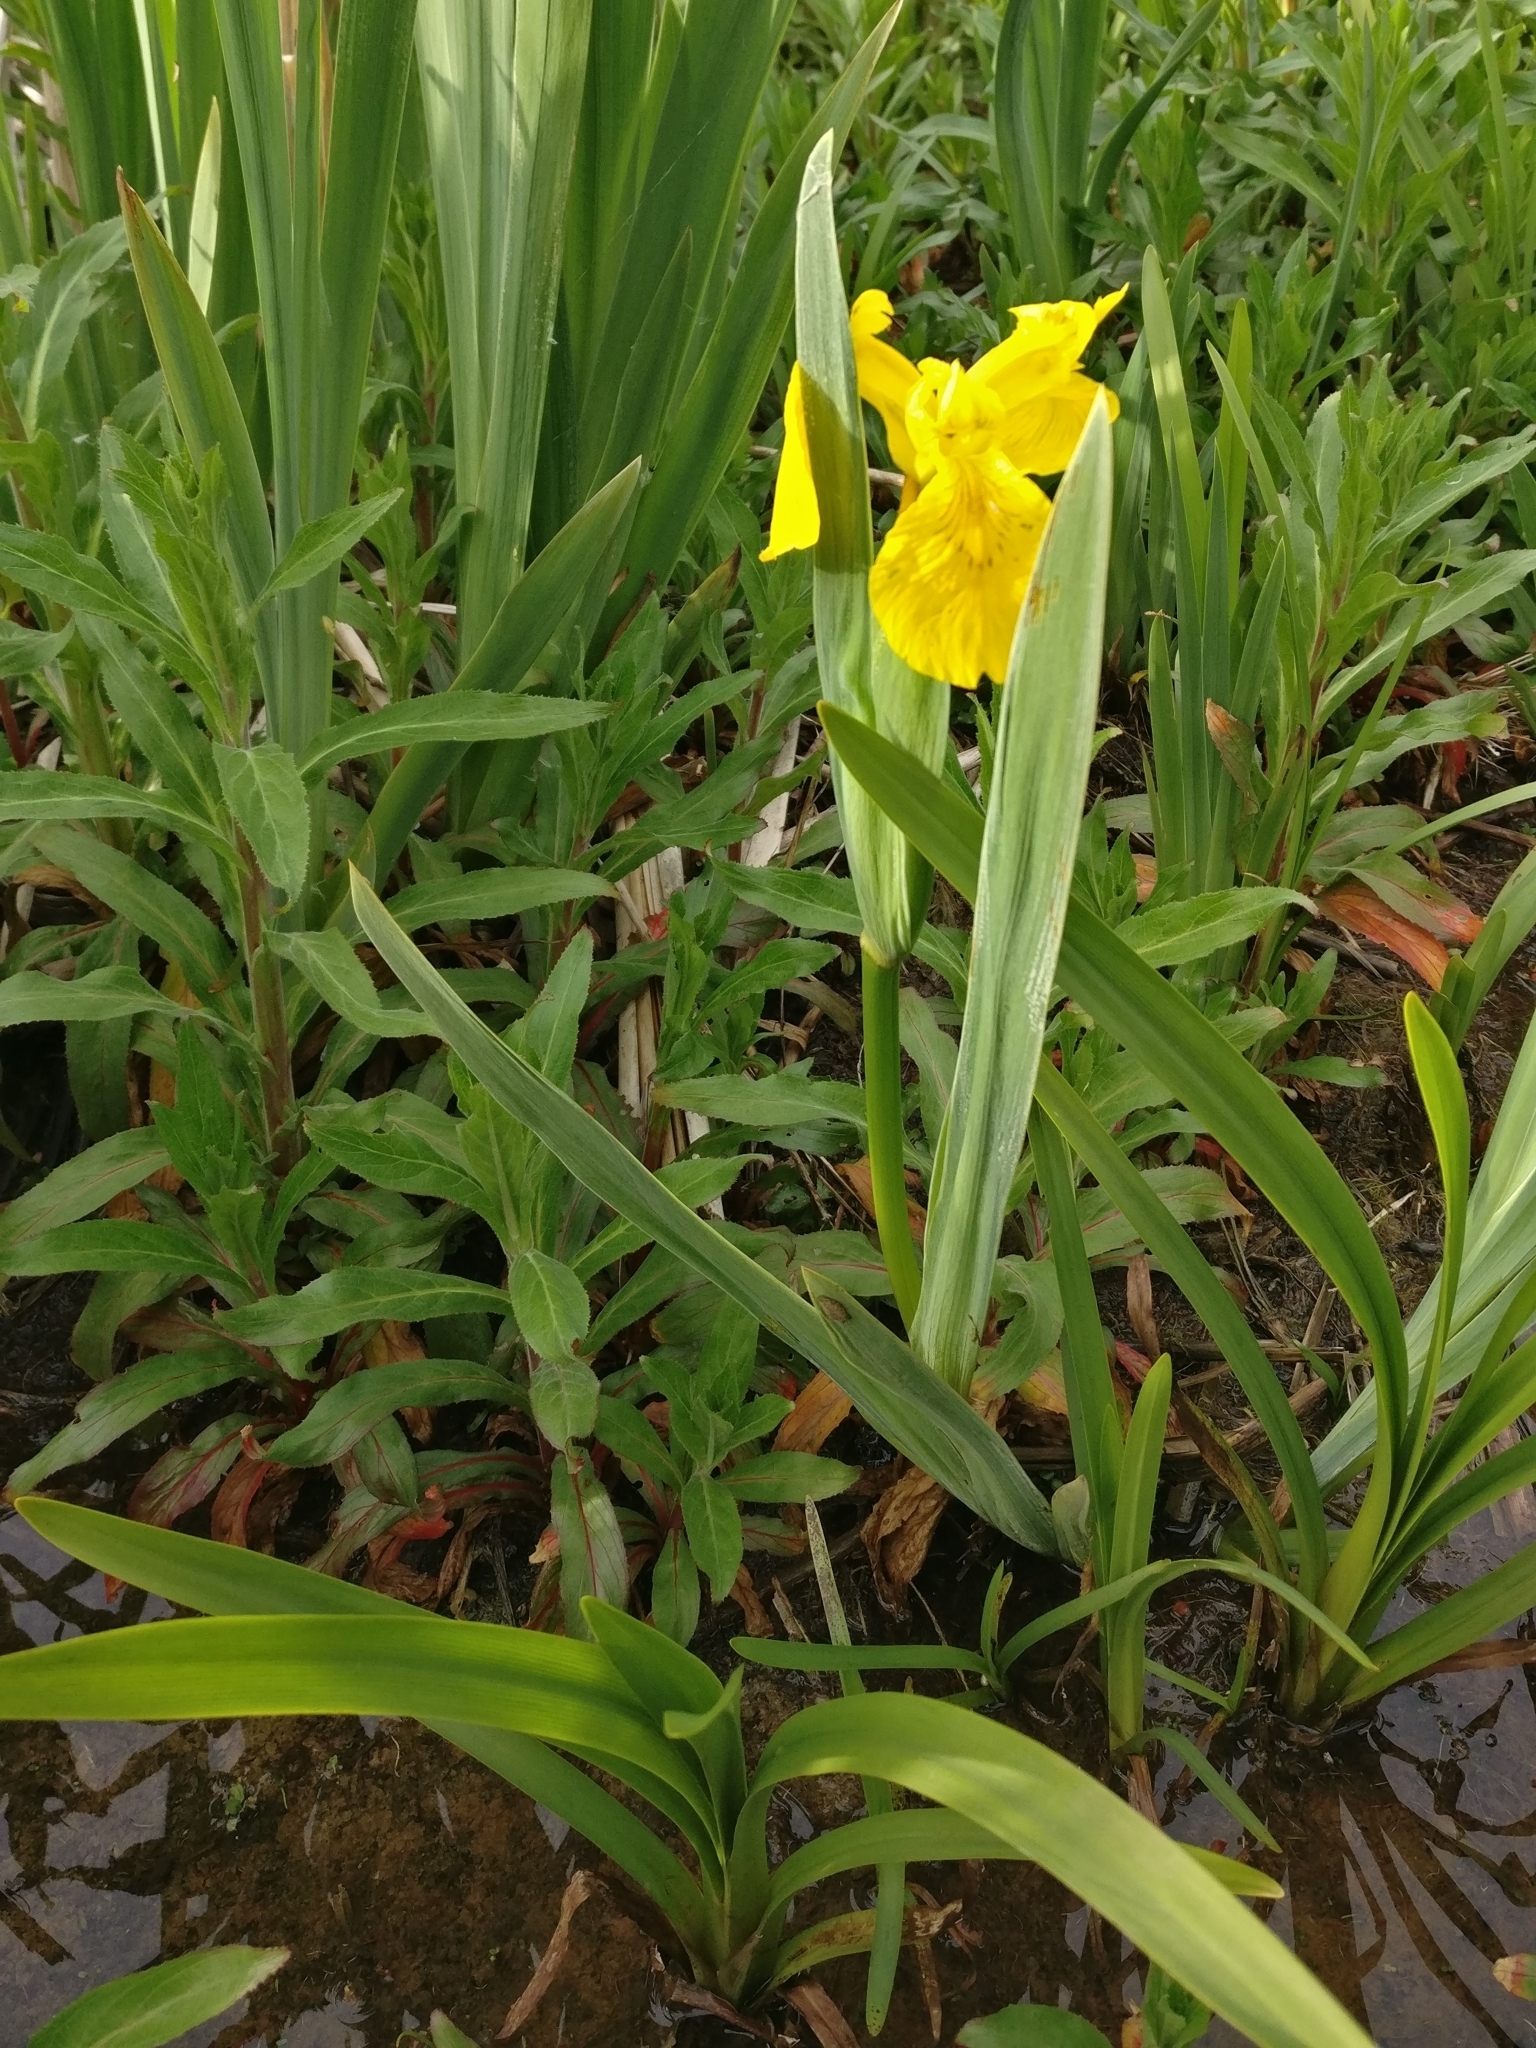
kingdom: Plantae
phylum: Tracheophyta
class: Liliopsida
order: Asparagales
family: Iridaceae
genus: Iris
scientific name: Iris pseudacorus
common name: Yellow flag
